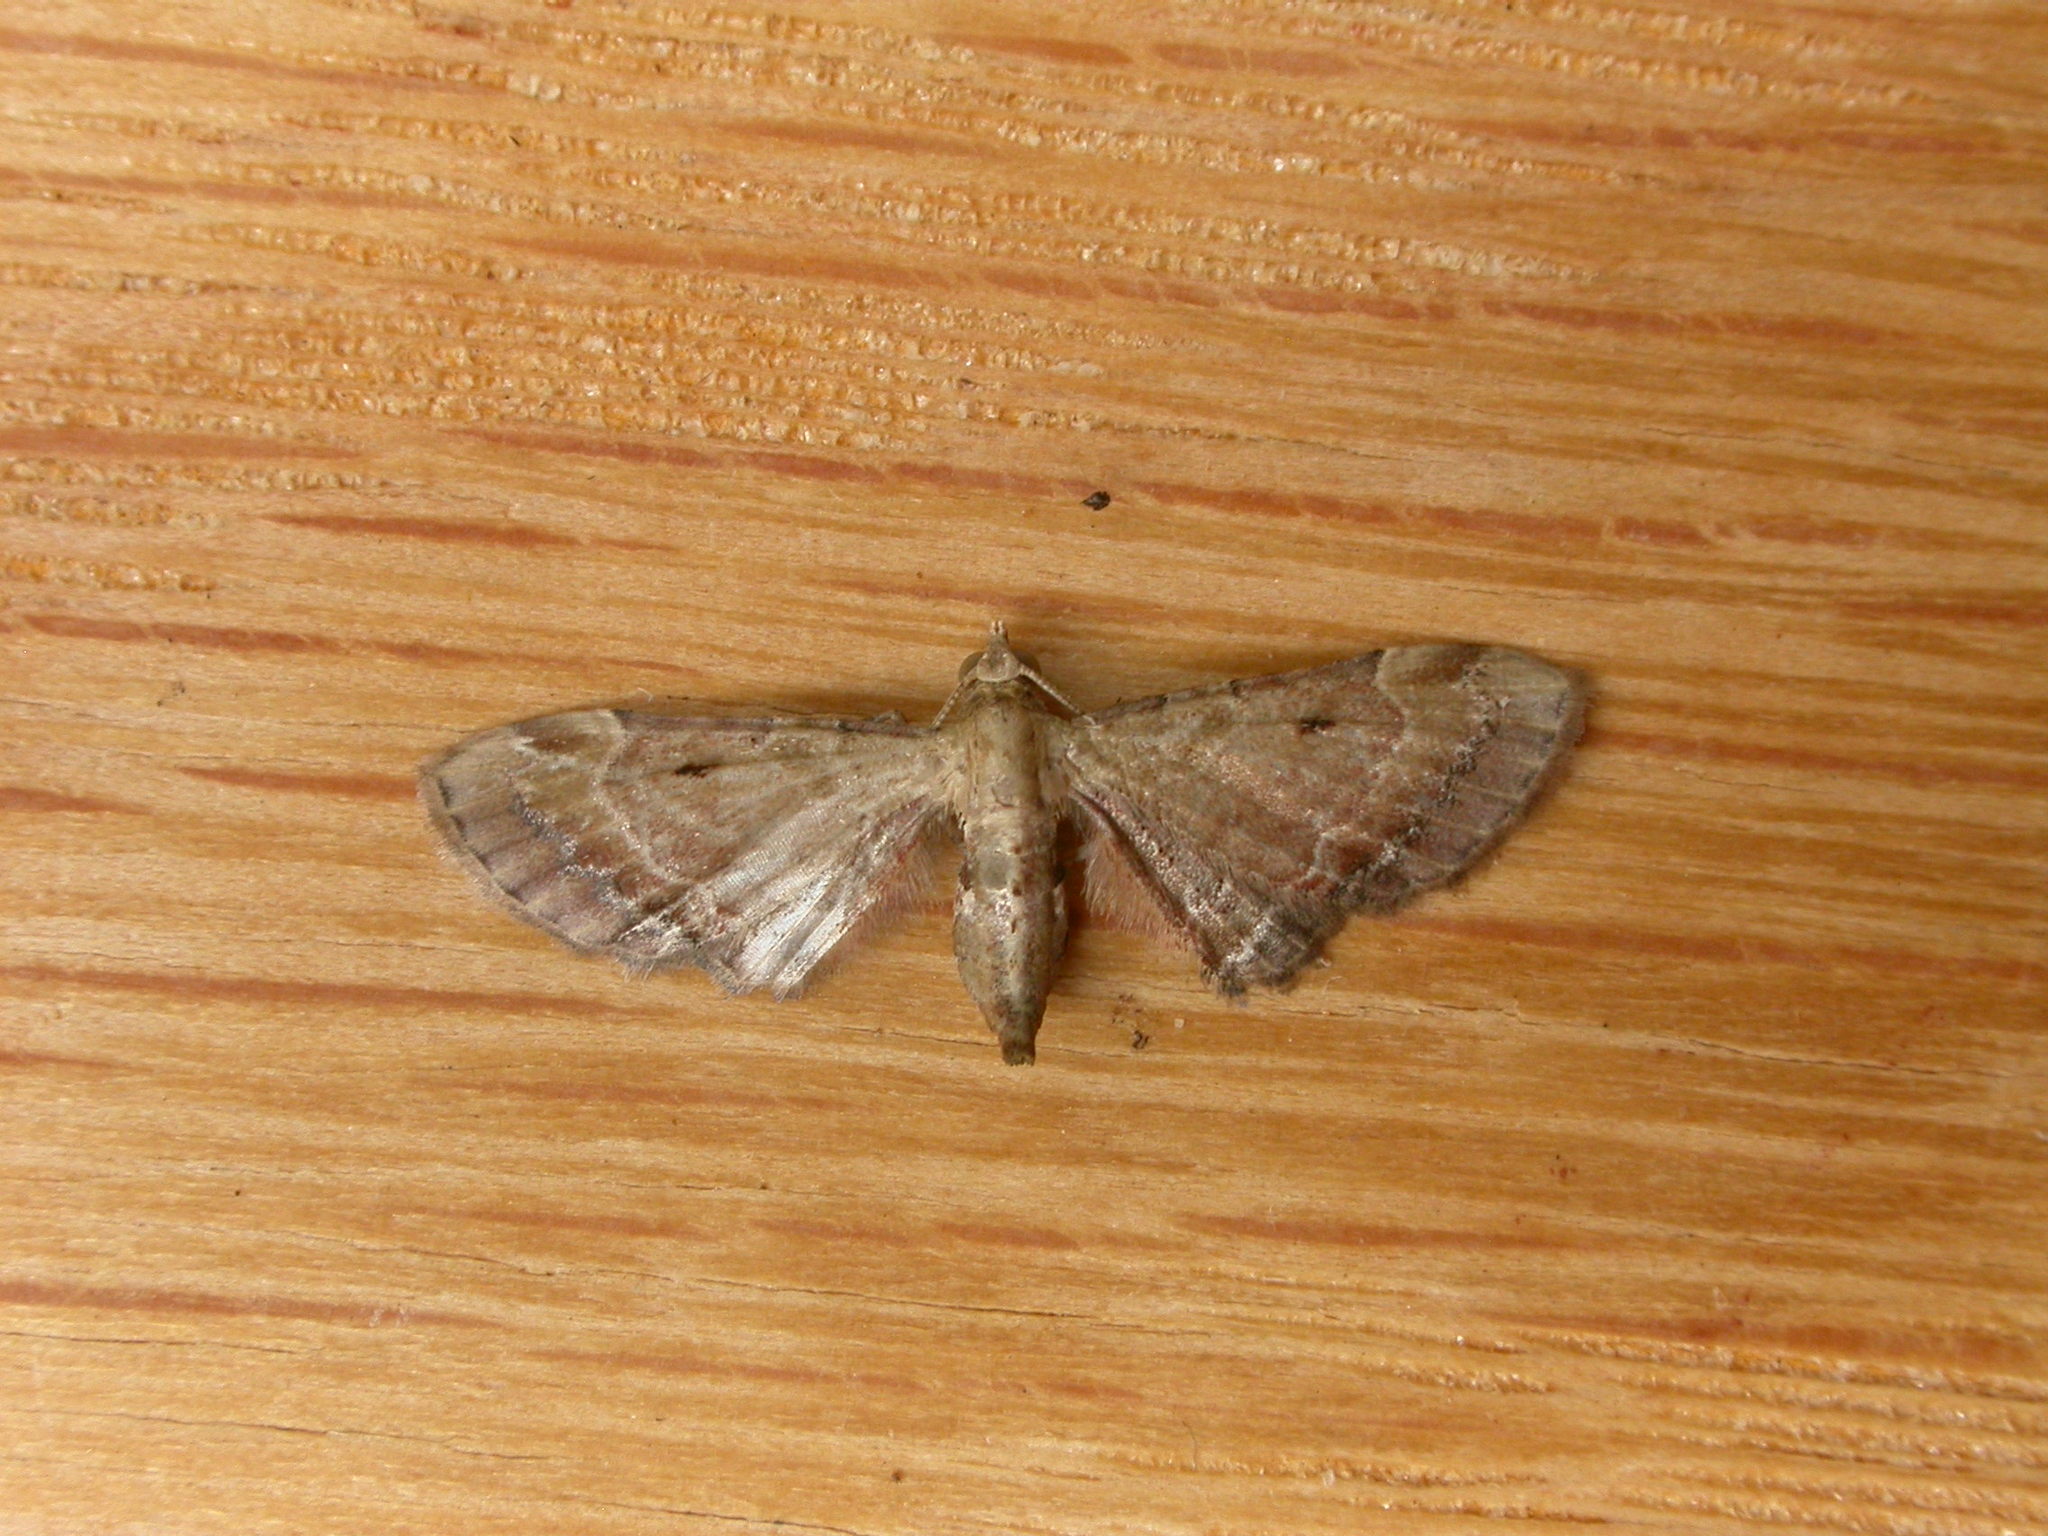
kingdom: Animalia
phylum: Arthropoda
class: Insecta
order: Lepidoptera
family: Geometridae
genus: Mesoptila
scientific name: Mesoptila compsodes
